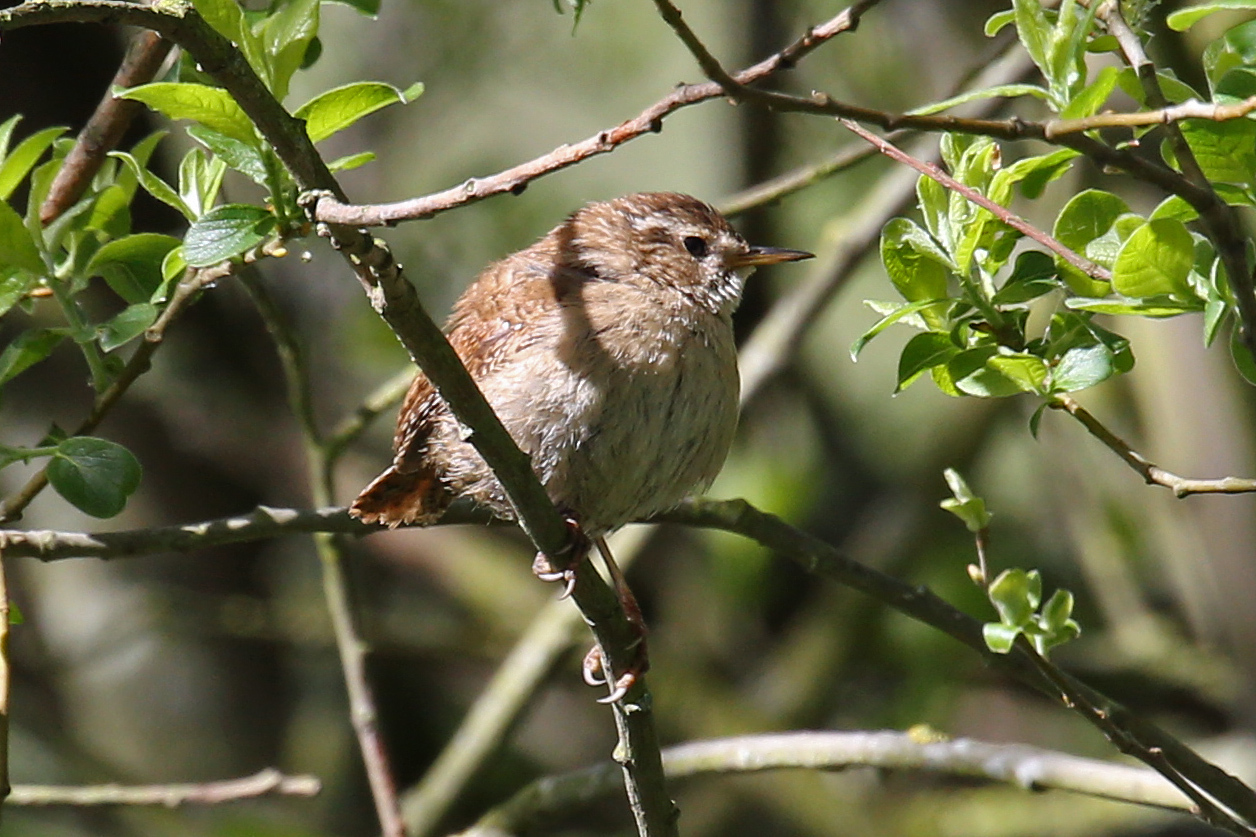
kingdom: Animalia
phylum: Chordata
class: Aves
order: Passeriformes
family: Troglodytidae
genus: Troglodytes
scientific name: Troglodytes troglodytes
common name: Eurasian wren
